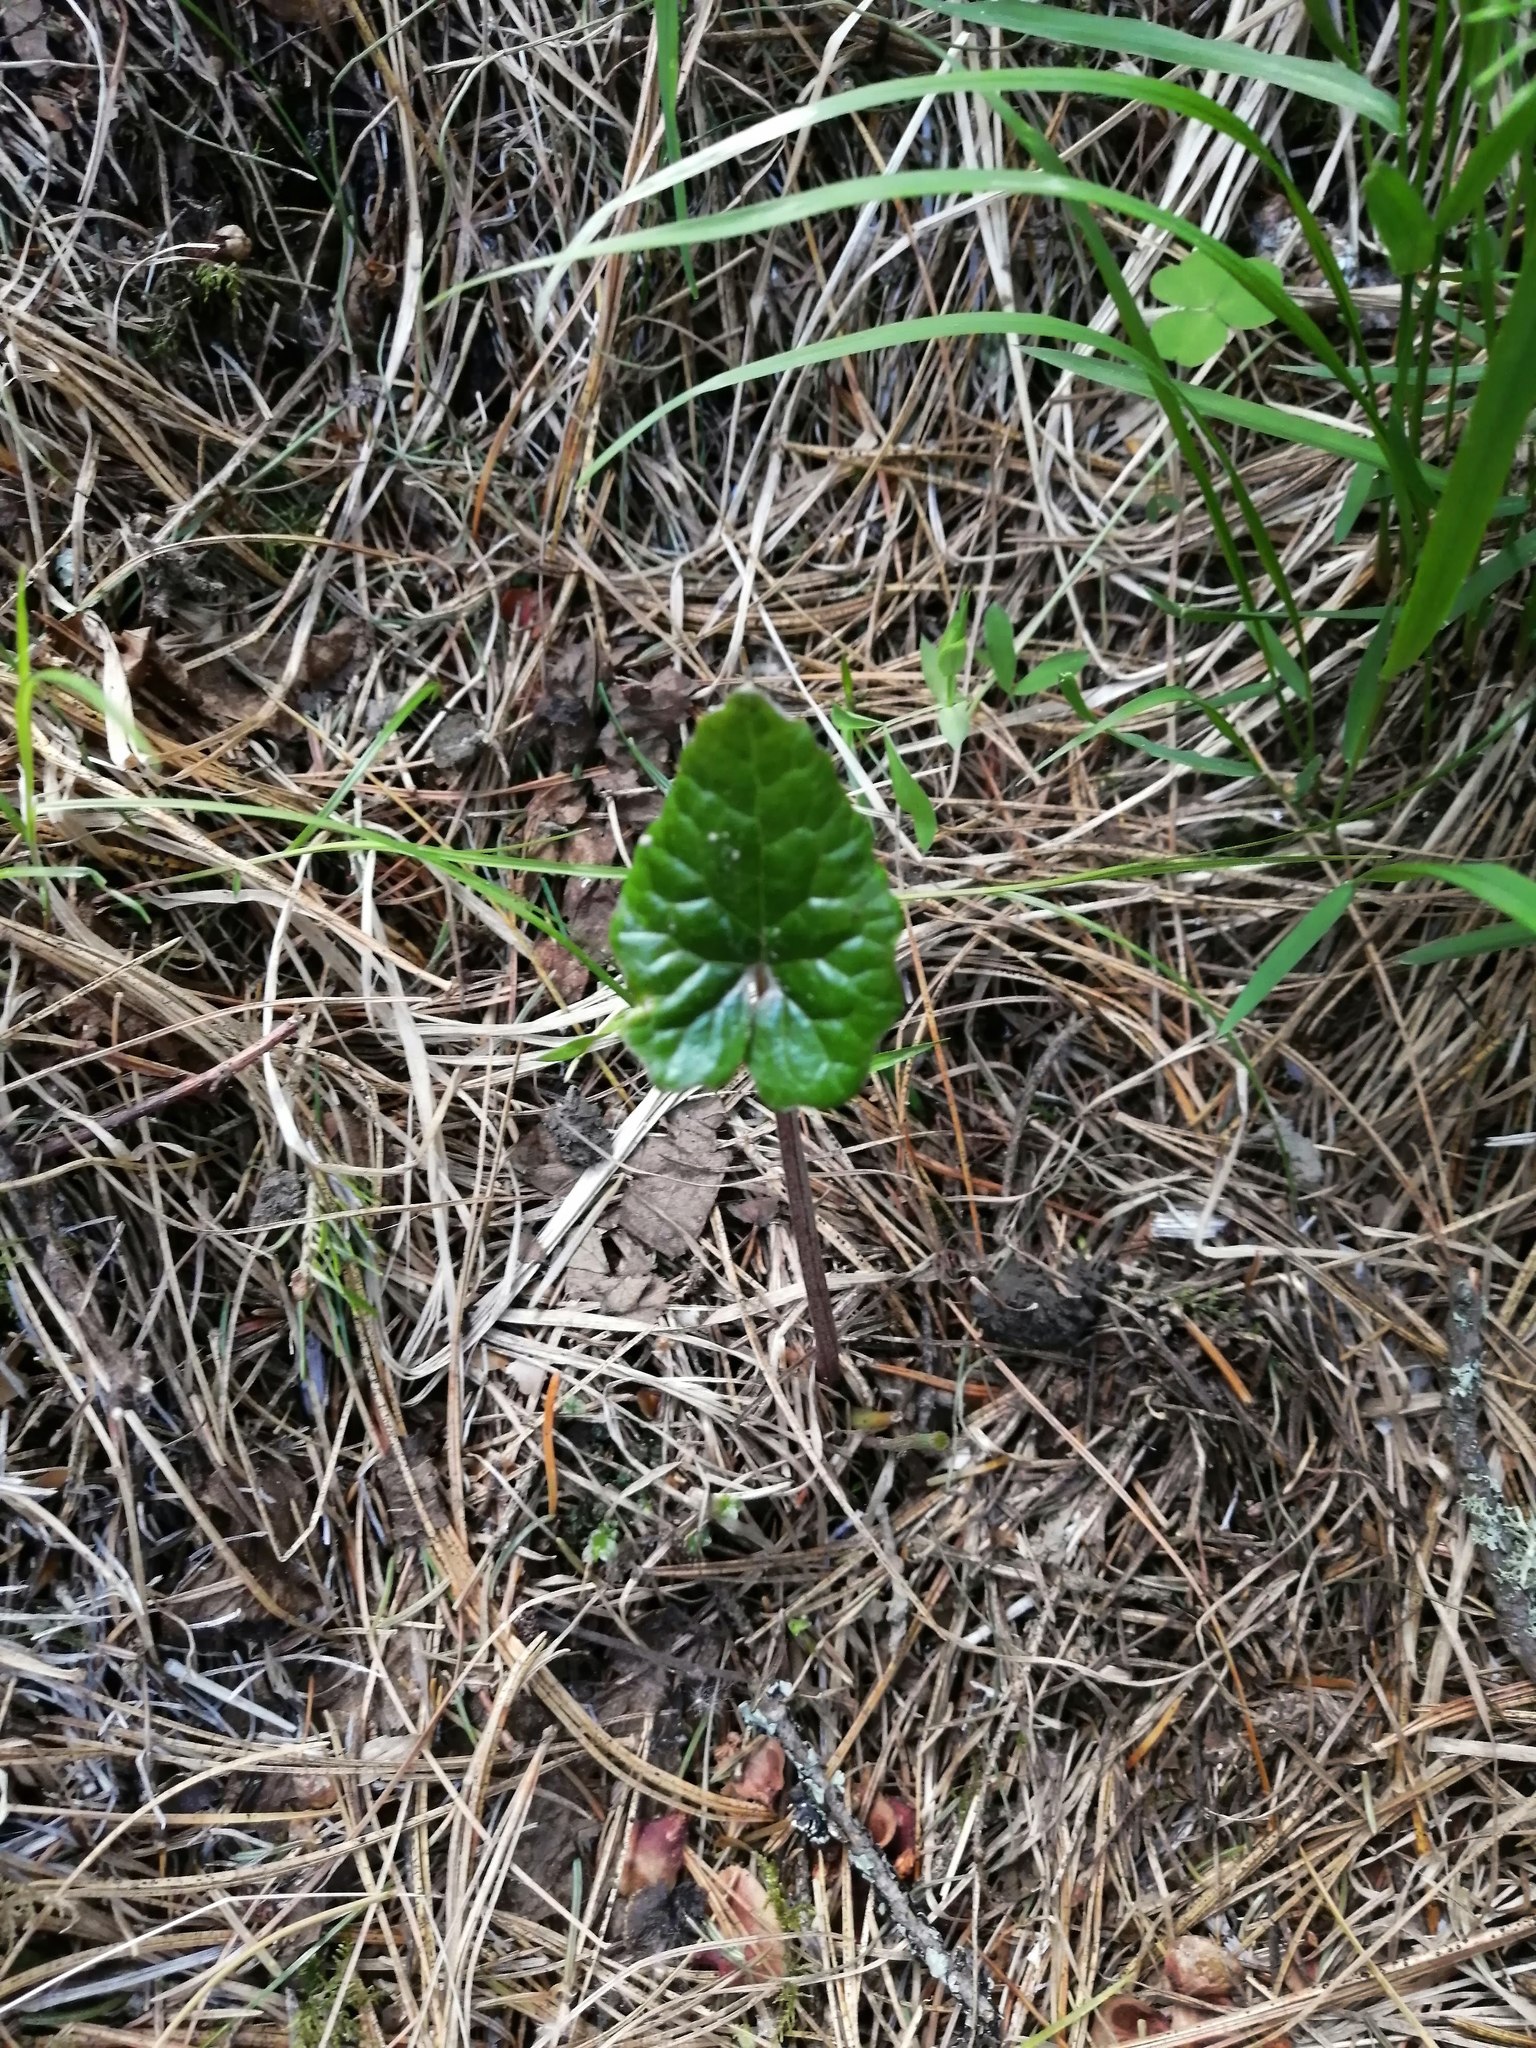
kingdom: Plantae
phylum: Tracheophyta
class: Magnoliopsida
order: Asterales
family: Asteraceae
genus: Tussilago
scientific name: Tussilago farfara
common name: Coltsfoot
